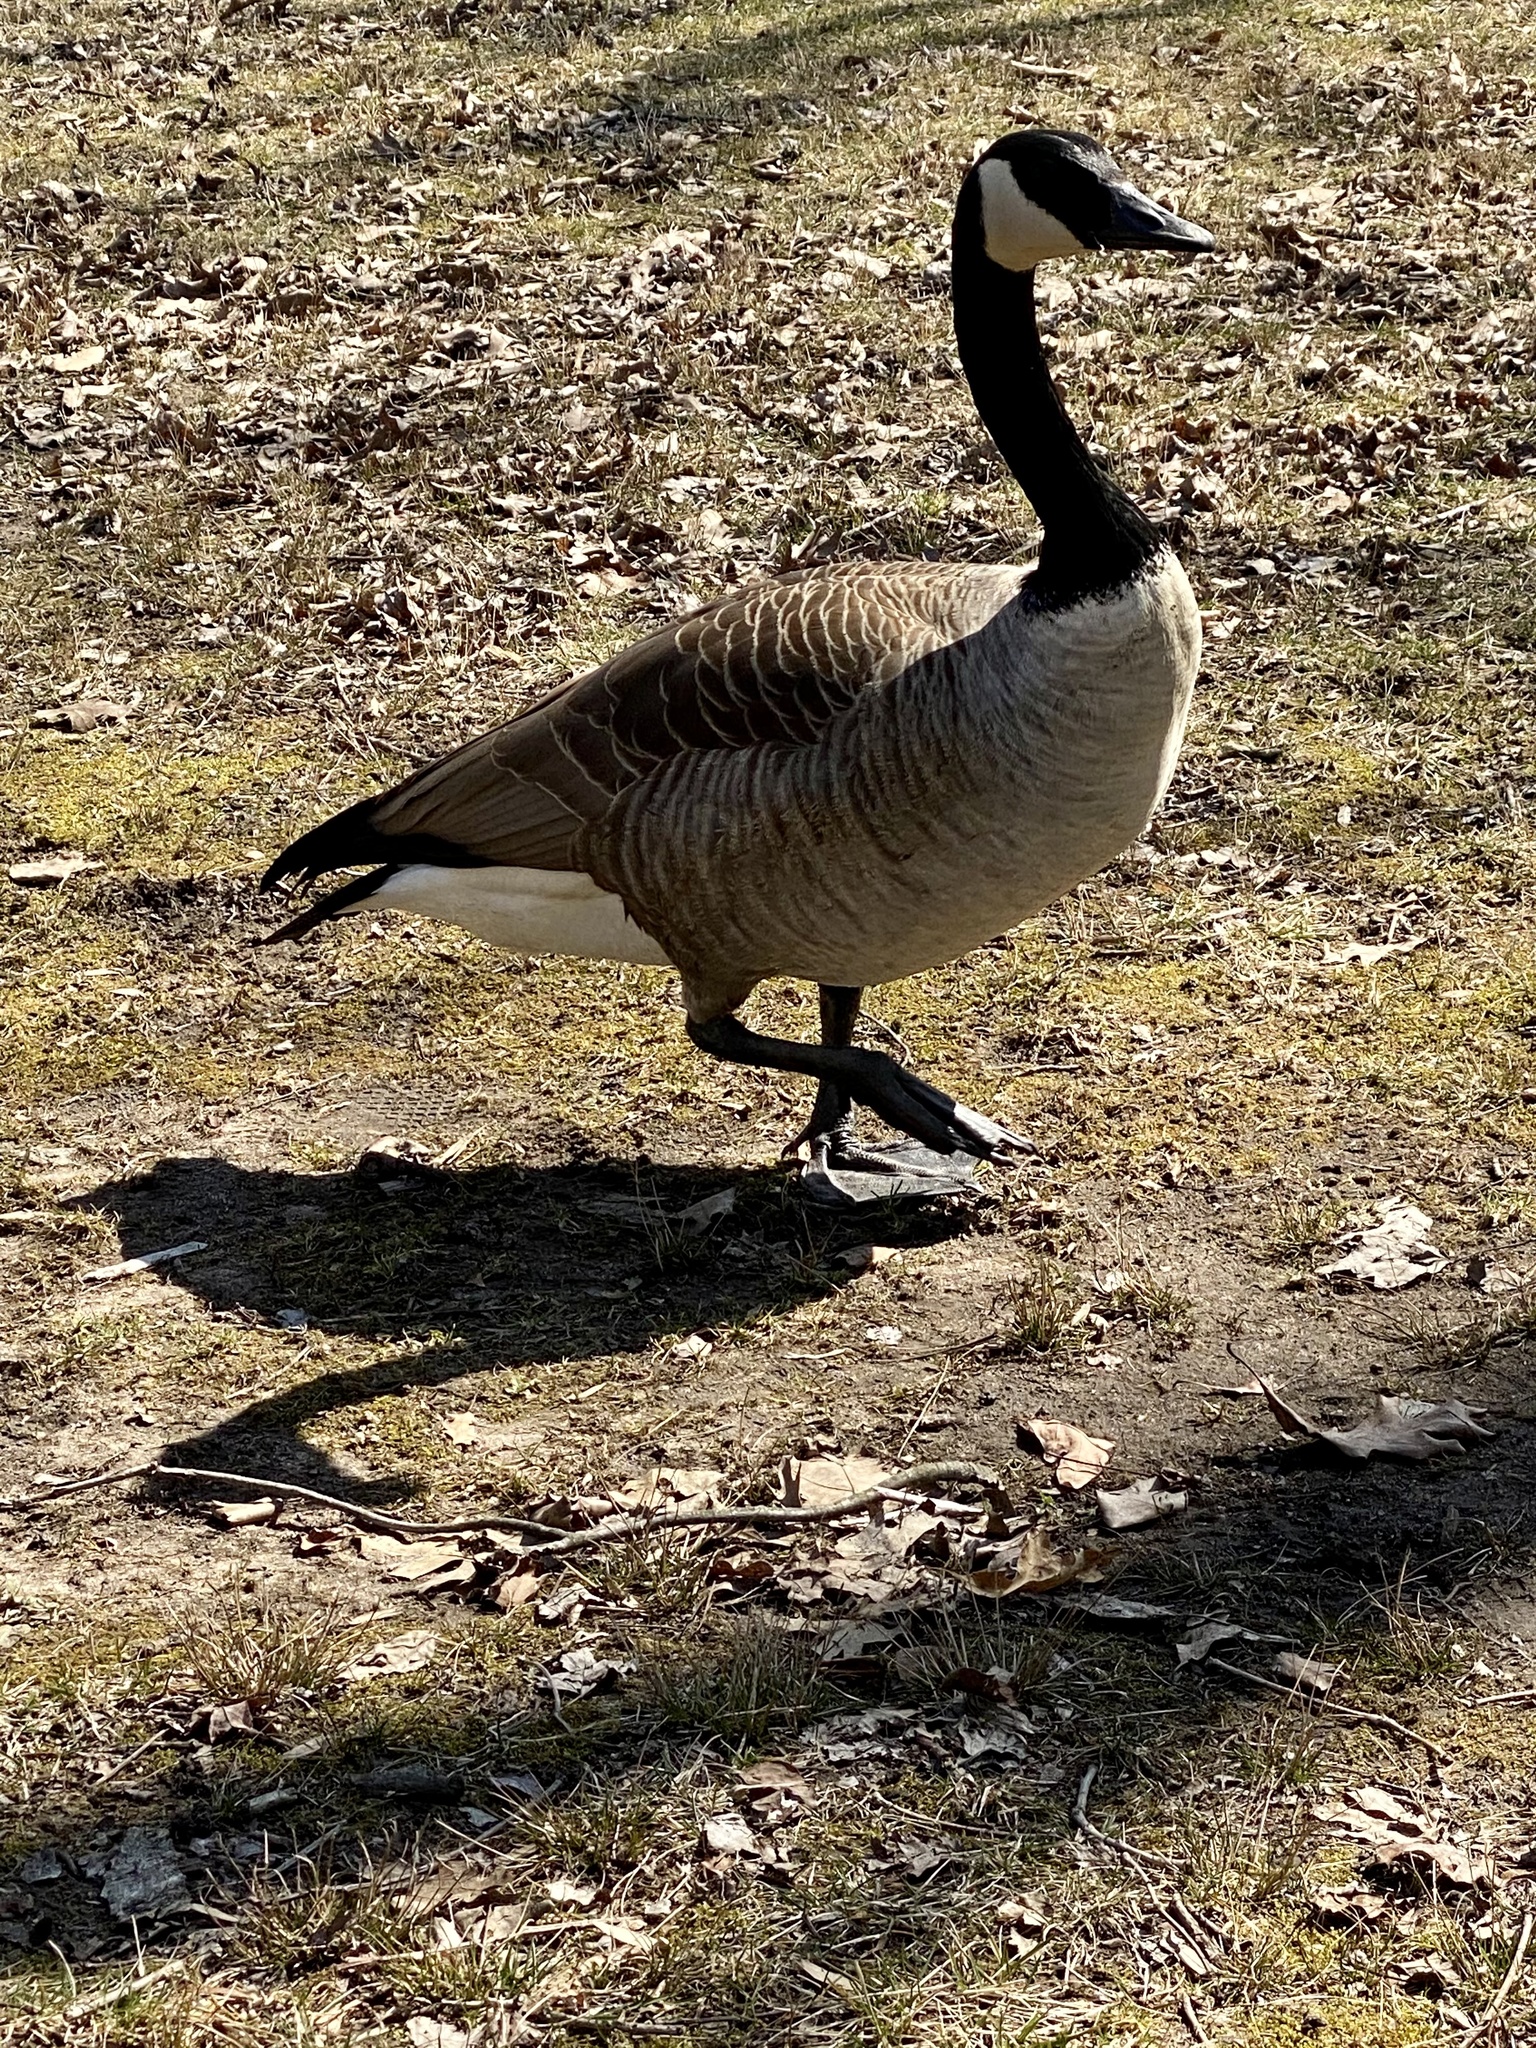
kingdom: Animalia
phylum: Chordata
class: Aves
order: Anseriformes
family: Anatidae
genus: Branta
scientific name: Branta canadensis
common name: Canada goose
